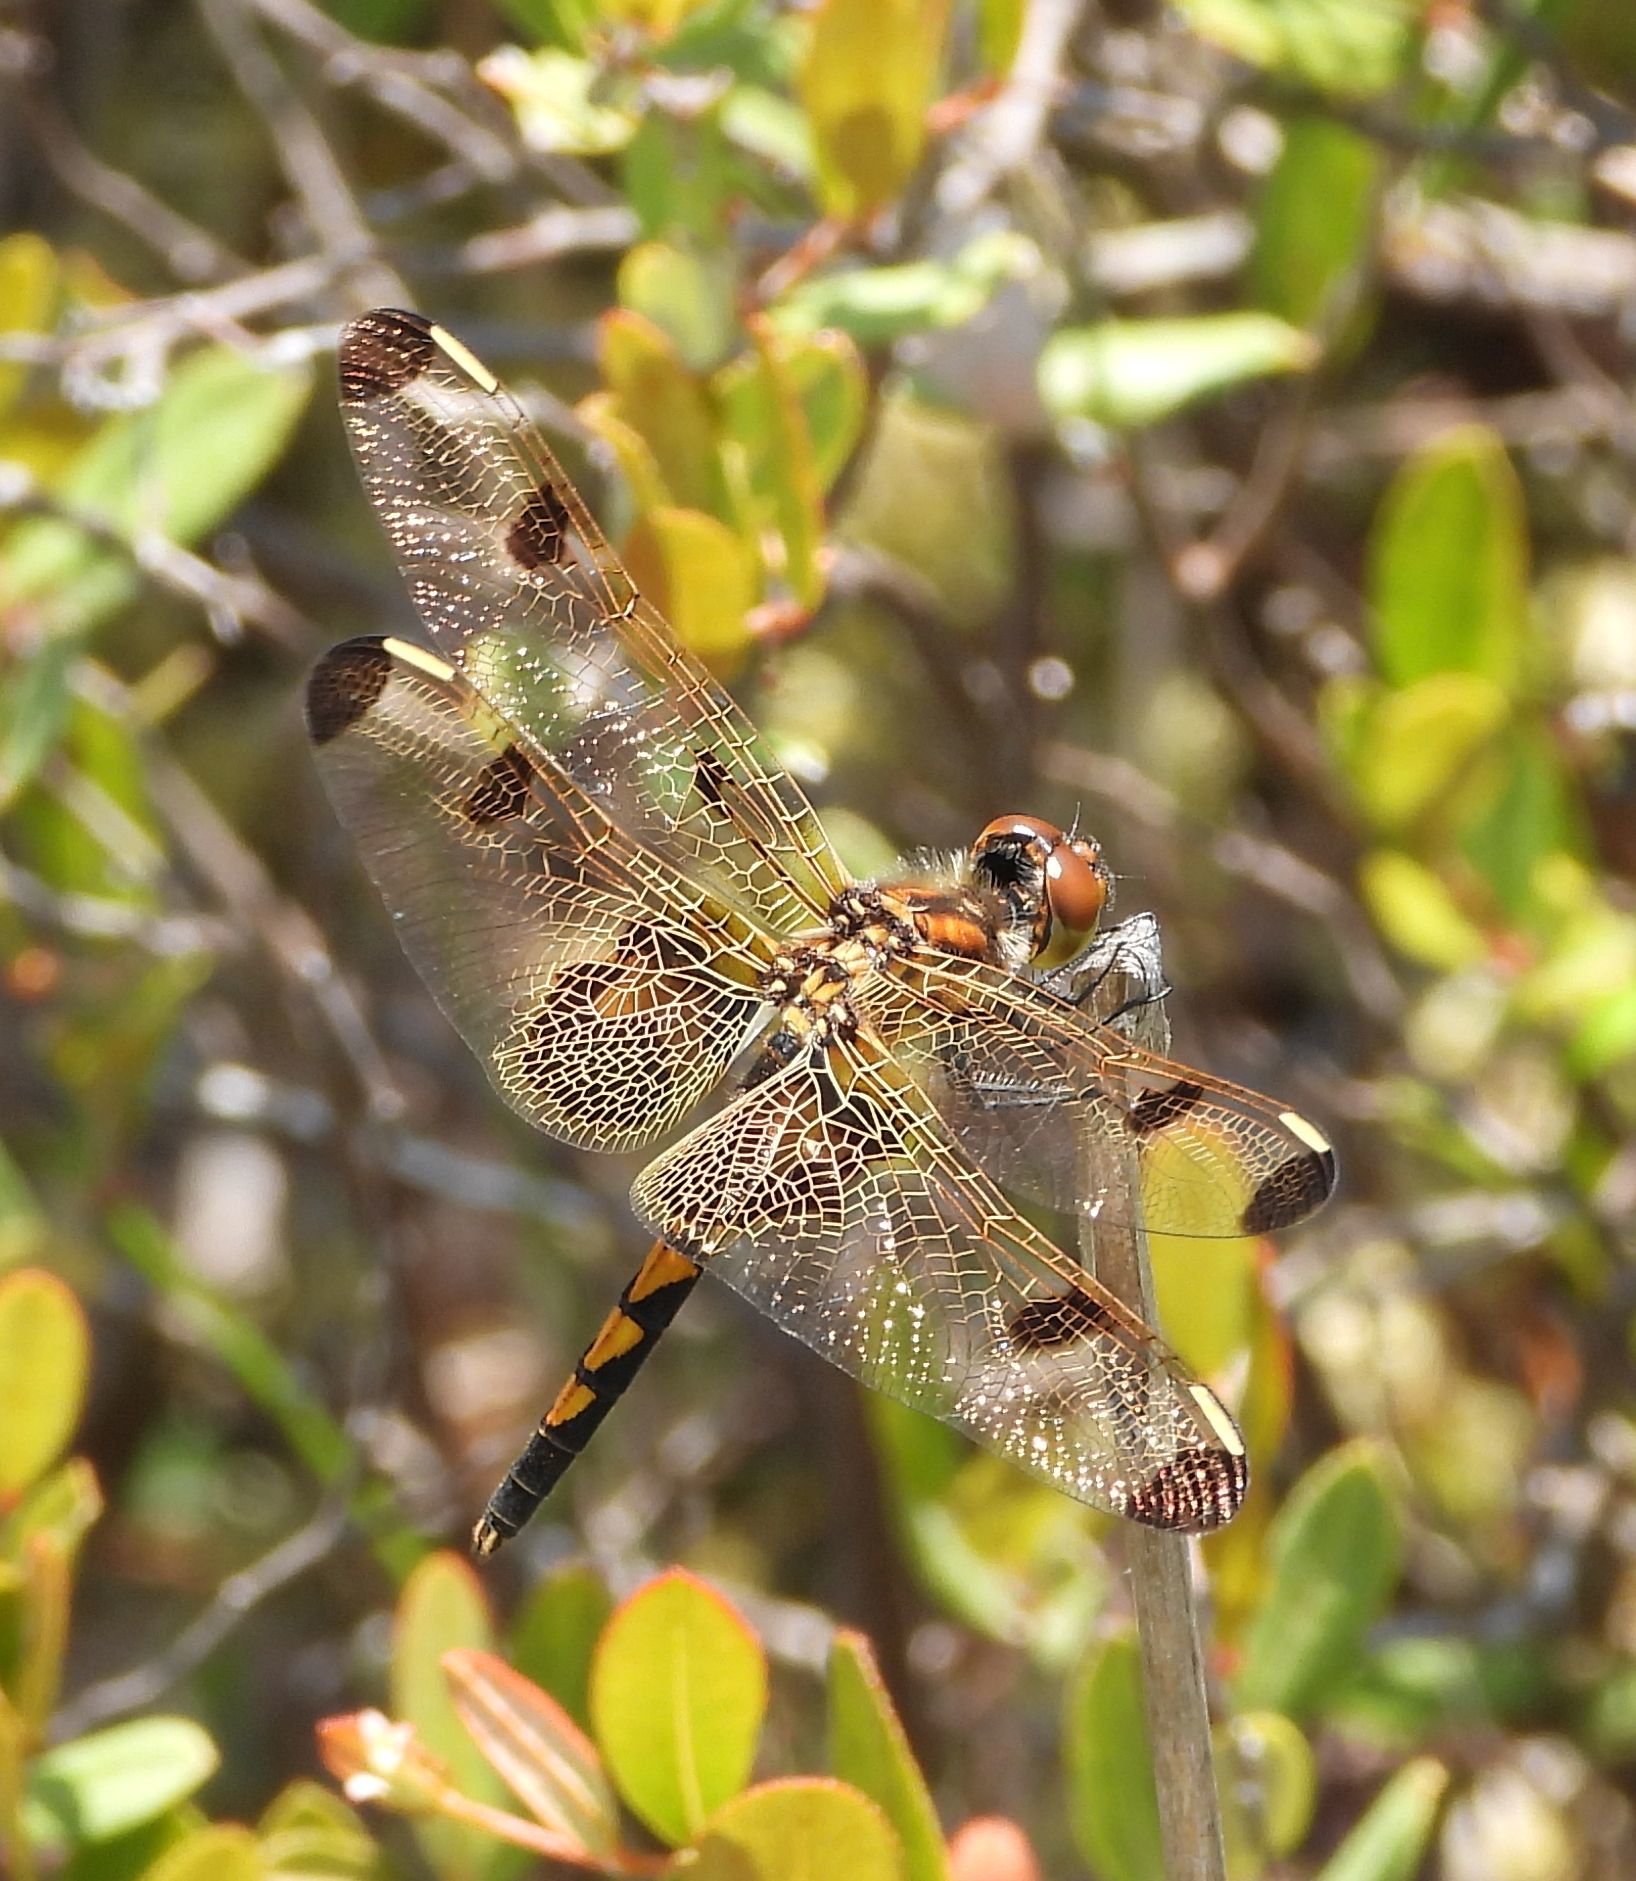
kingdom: Animalia
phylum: Arthropoda
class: Insecta
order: Odonata
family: Libellulidae
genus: Celithemis
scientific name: Celithemis elisa
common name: Calico pennant
